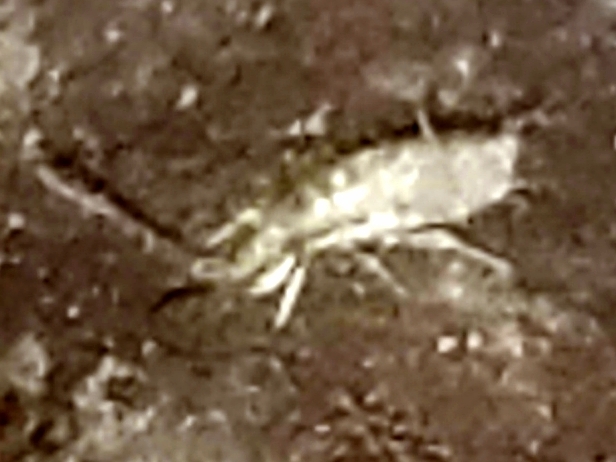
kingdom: Animalia
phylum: Arthropoda
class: Collembola
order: Entomobryomorpha
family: Entomobryidae
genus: Homidia
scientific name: Homidia socia
